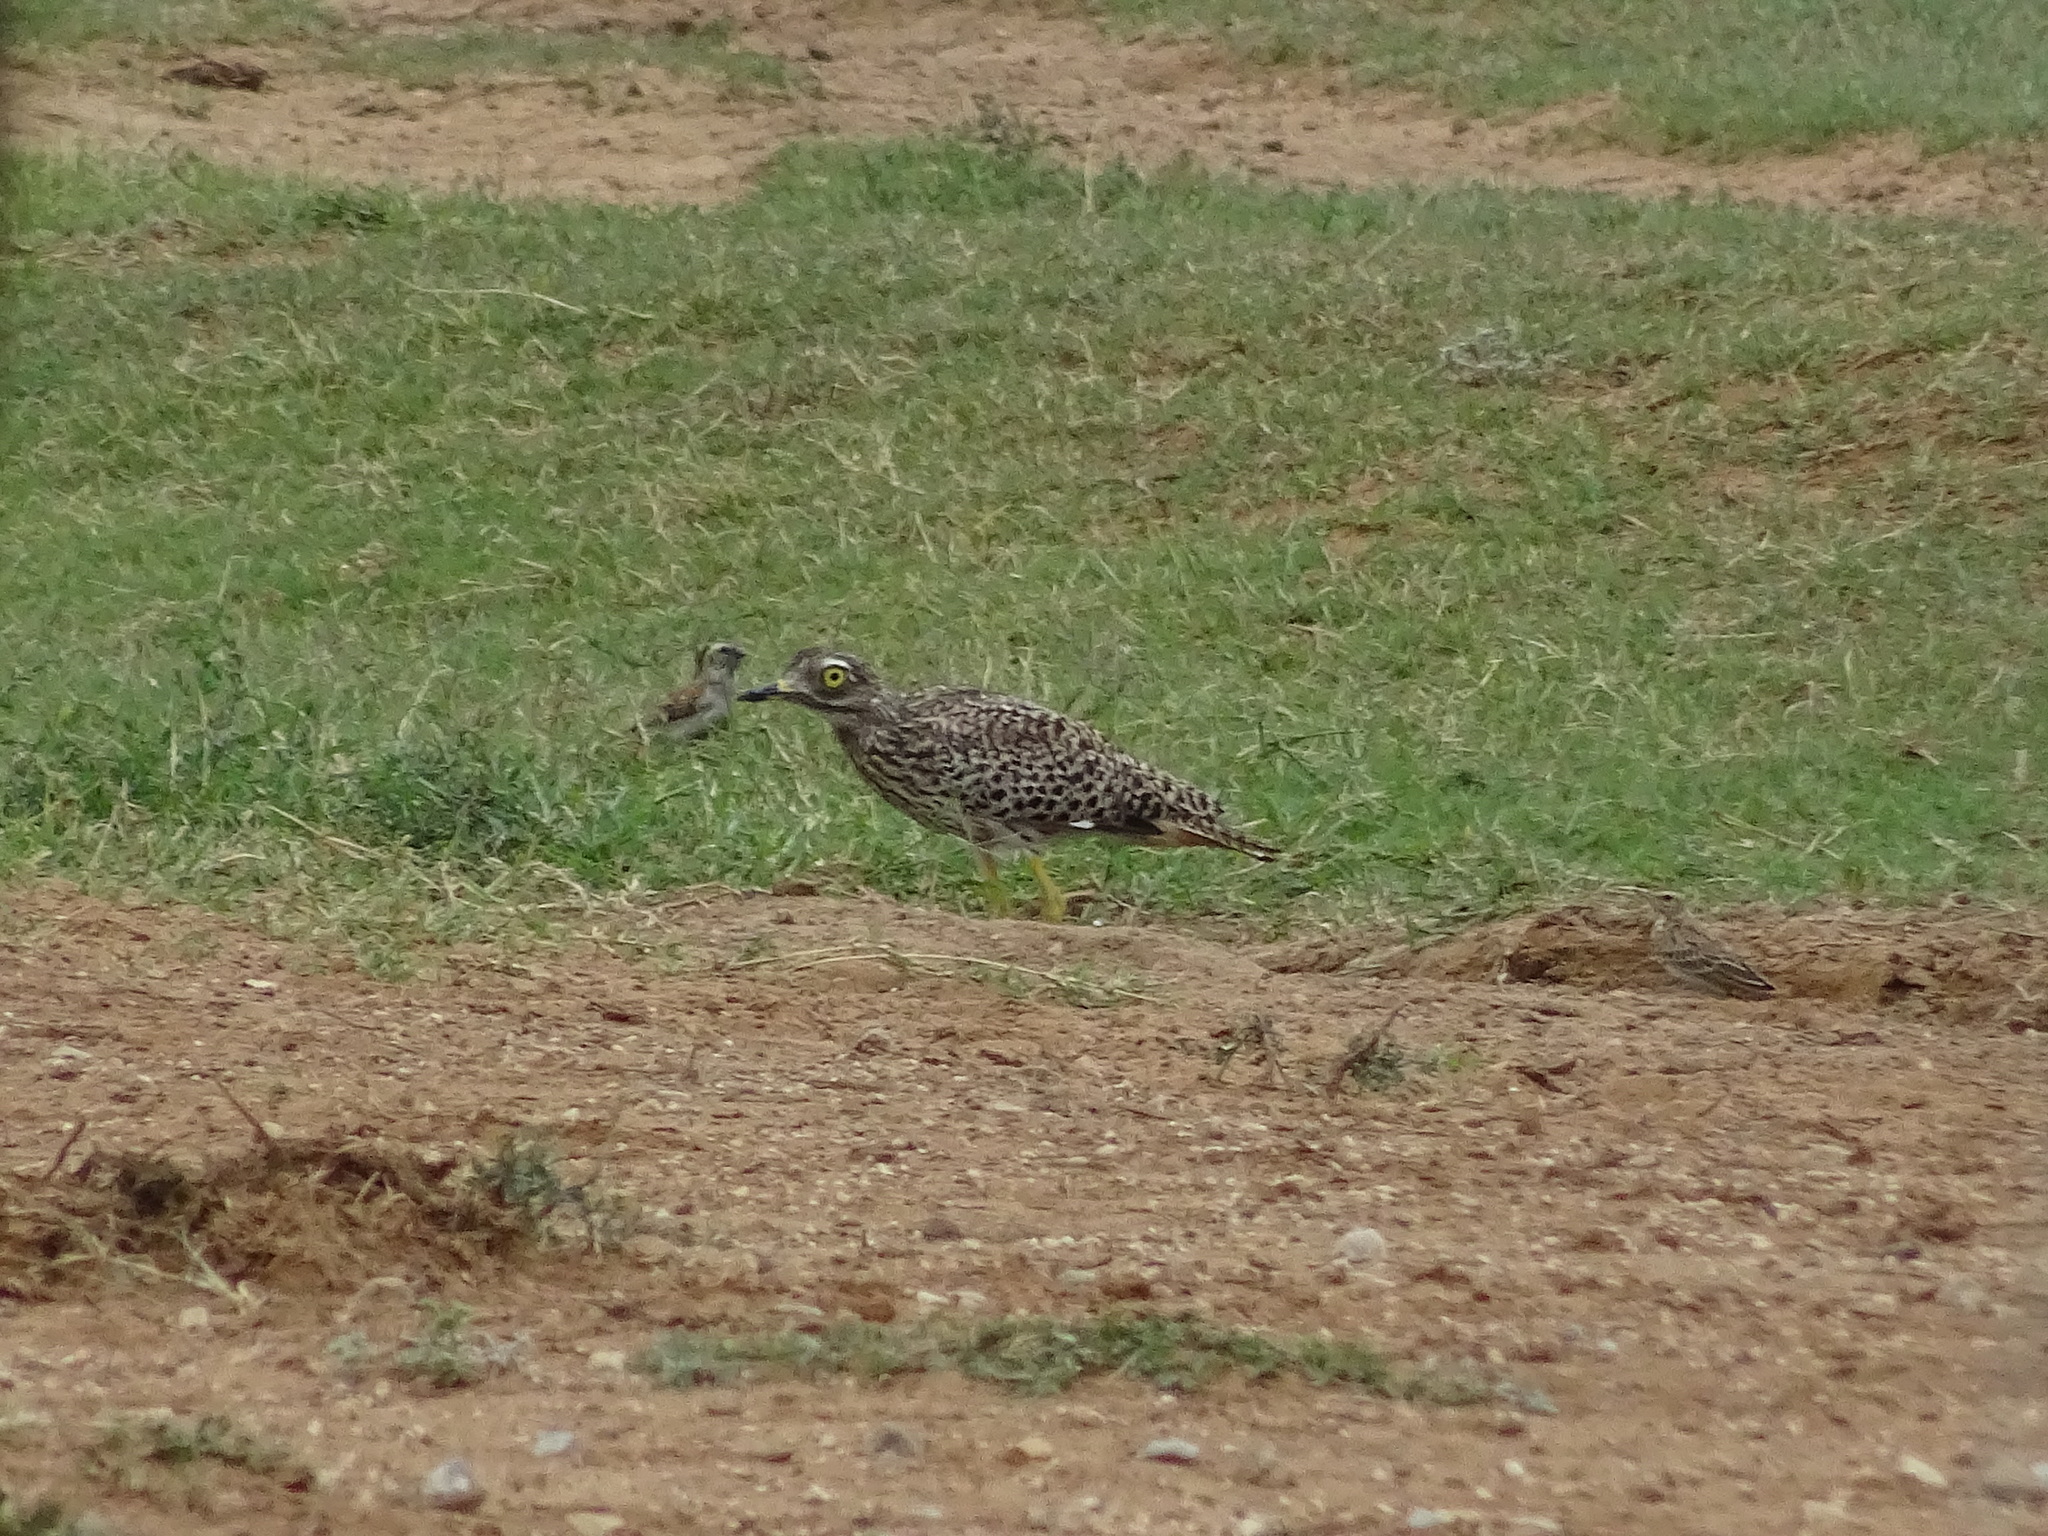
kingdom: Animalia
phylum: Chordata
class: Aves
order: Charadriiformes
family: Burhinidae
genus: Burhinus
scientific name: Burhinus capensis
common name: Spotted thick-knee
